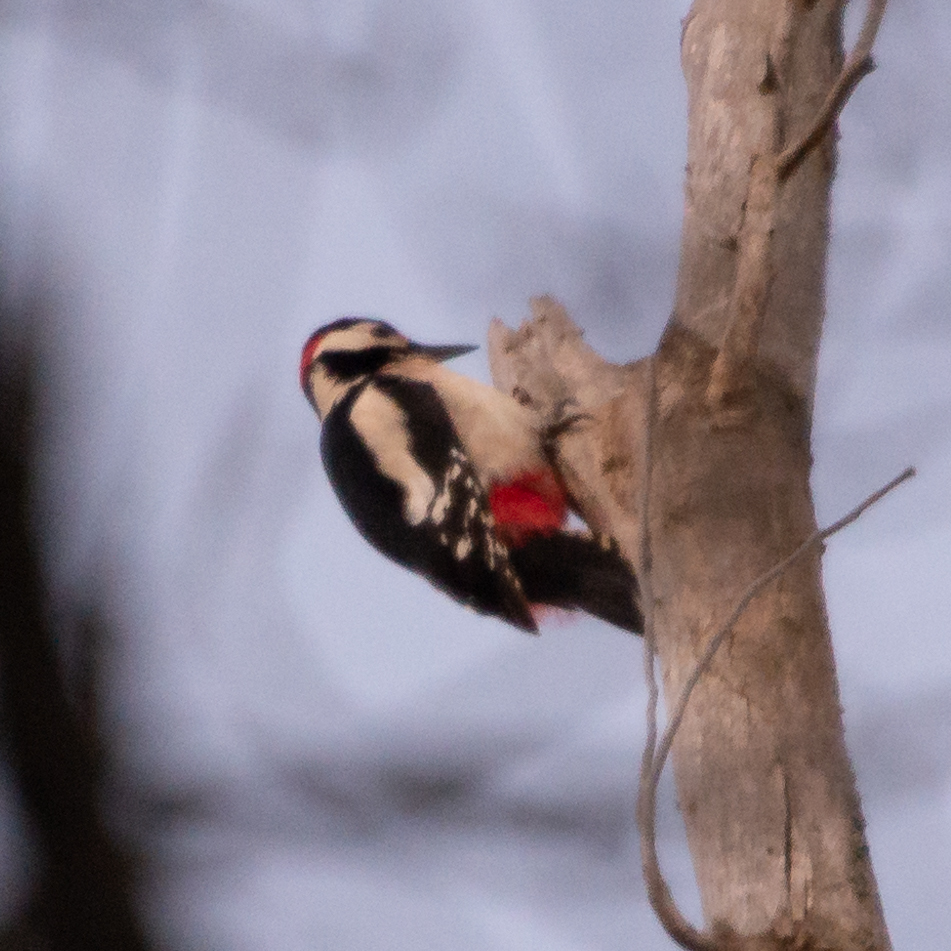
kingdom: Animalia
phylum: Chordata
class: Aves
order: Piciformes
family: Picidae
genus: Dendrocopos
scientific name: Dendrocopos major
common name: Great spotted woodpecker
